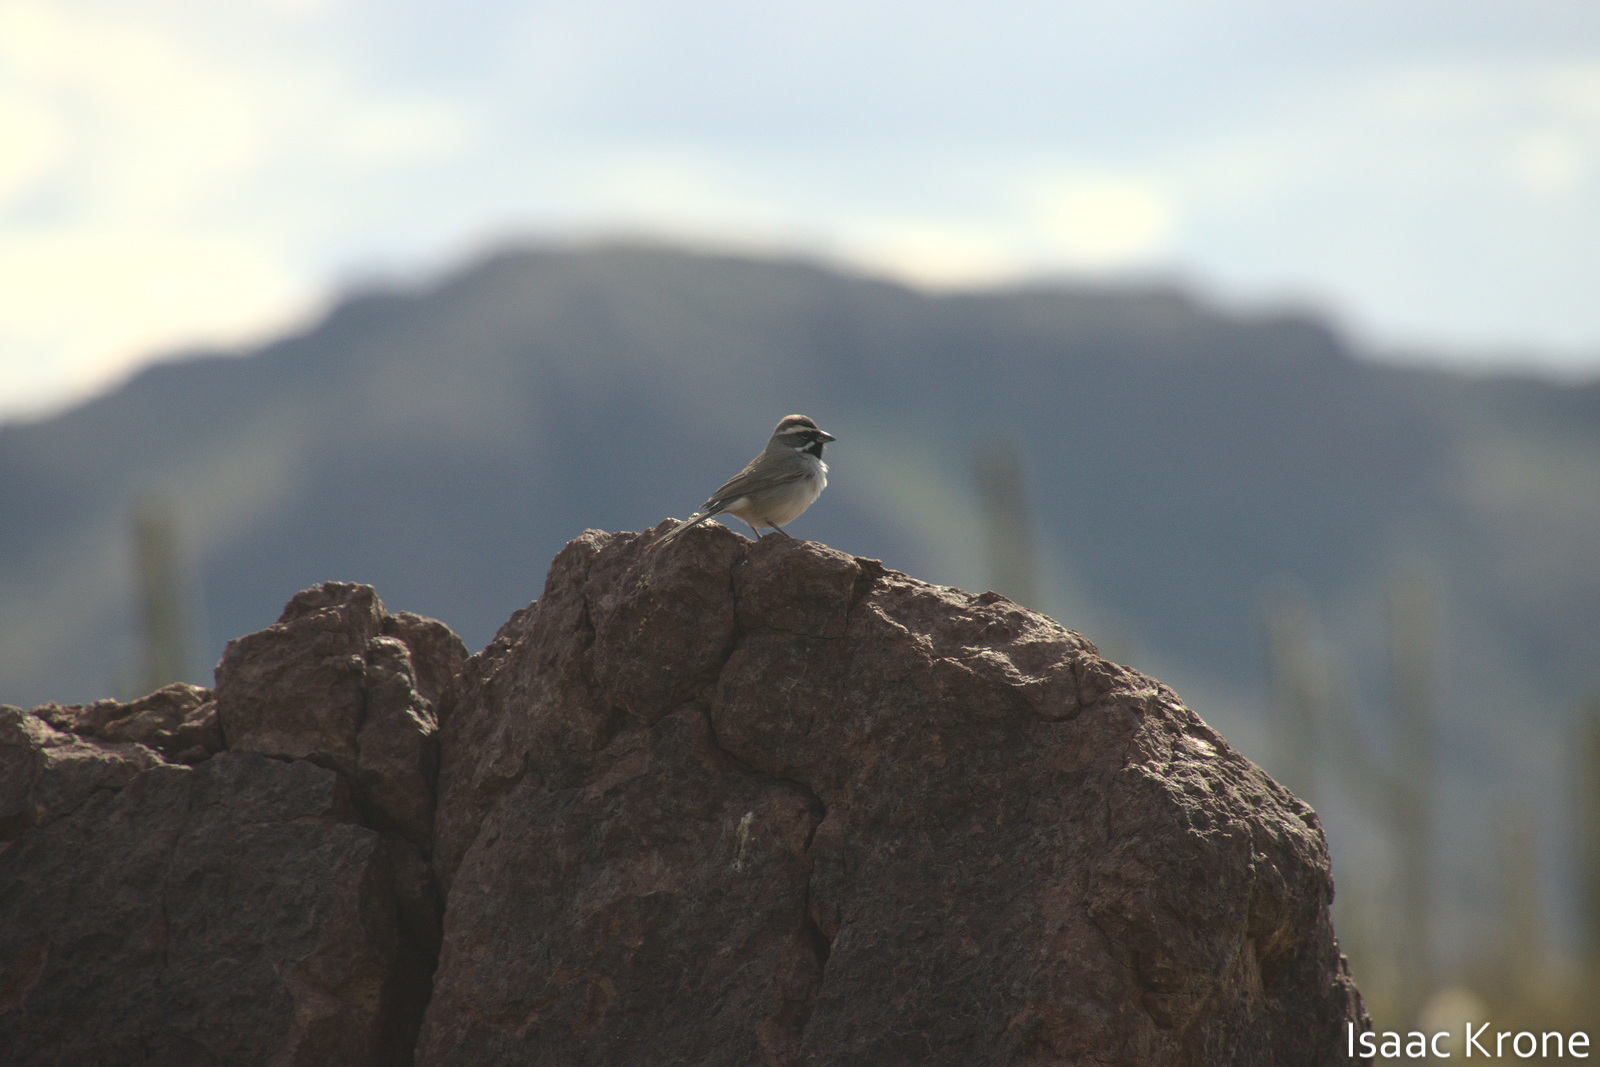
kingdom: Animalia
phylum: Chordata
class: Aves
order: Passeriformes
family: Passerellidae
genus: Amphispiza
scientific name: Amphispiza bilineata
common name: Black-throated sparrow
